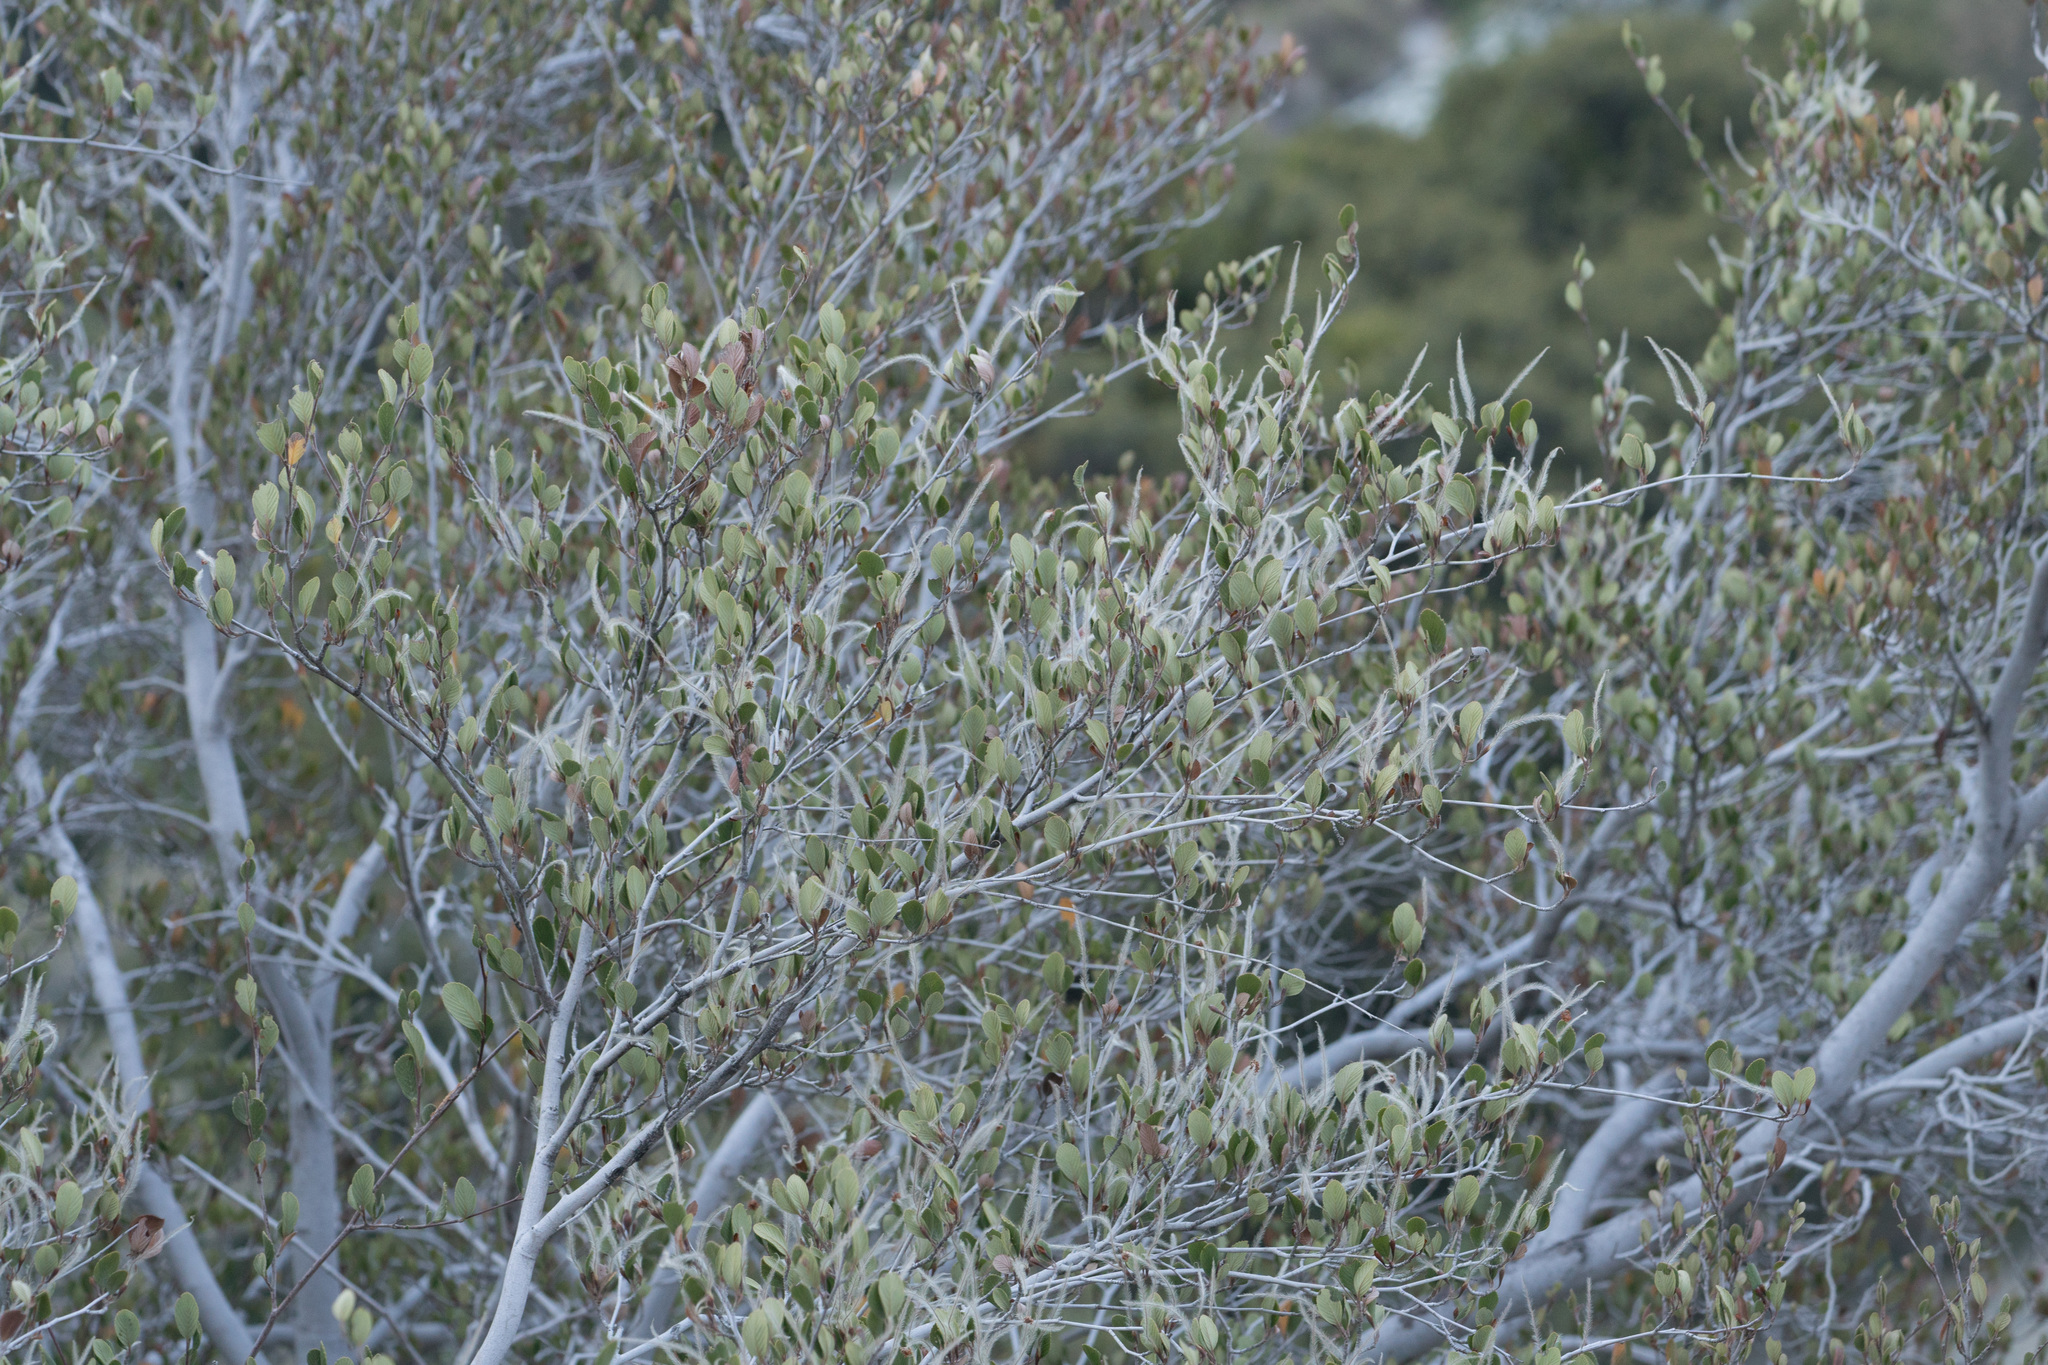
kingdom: Plantae
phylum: Tracheophyta
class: Magnoliopsida
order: Rosales
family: Rosaceae
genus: Cercocarpus
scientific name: Cercocarpus betuloides
